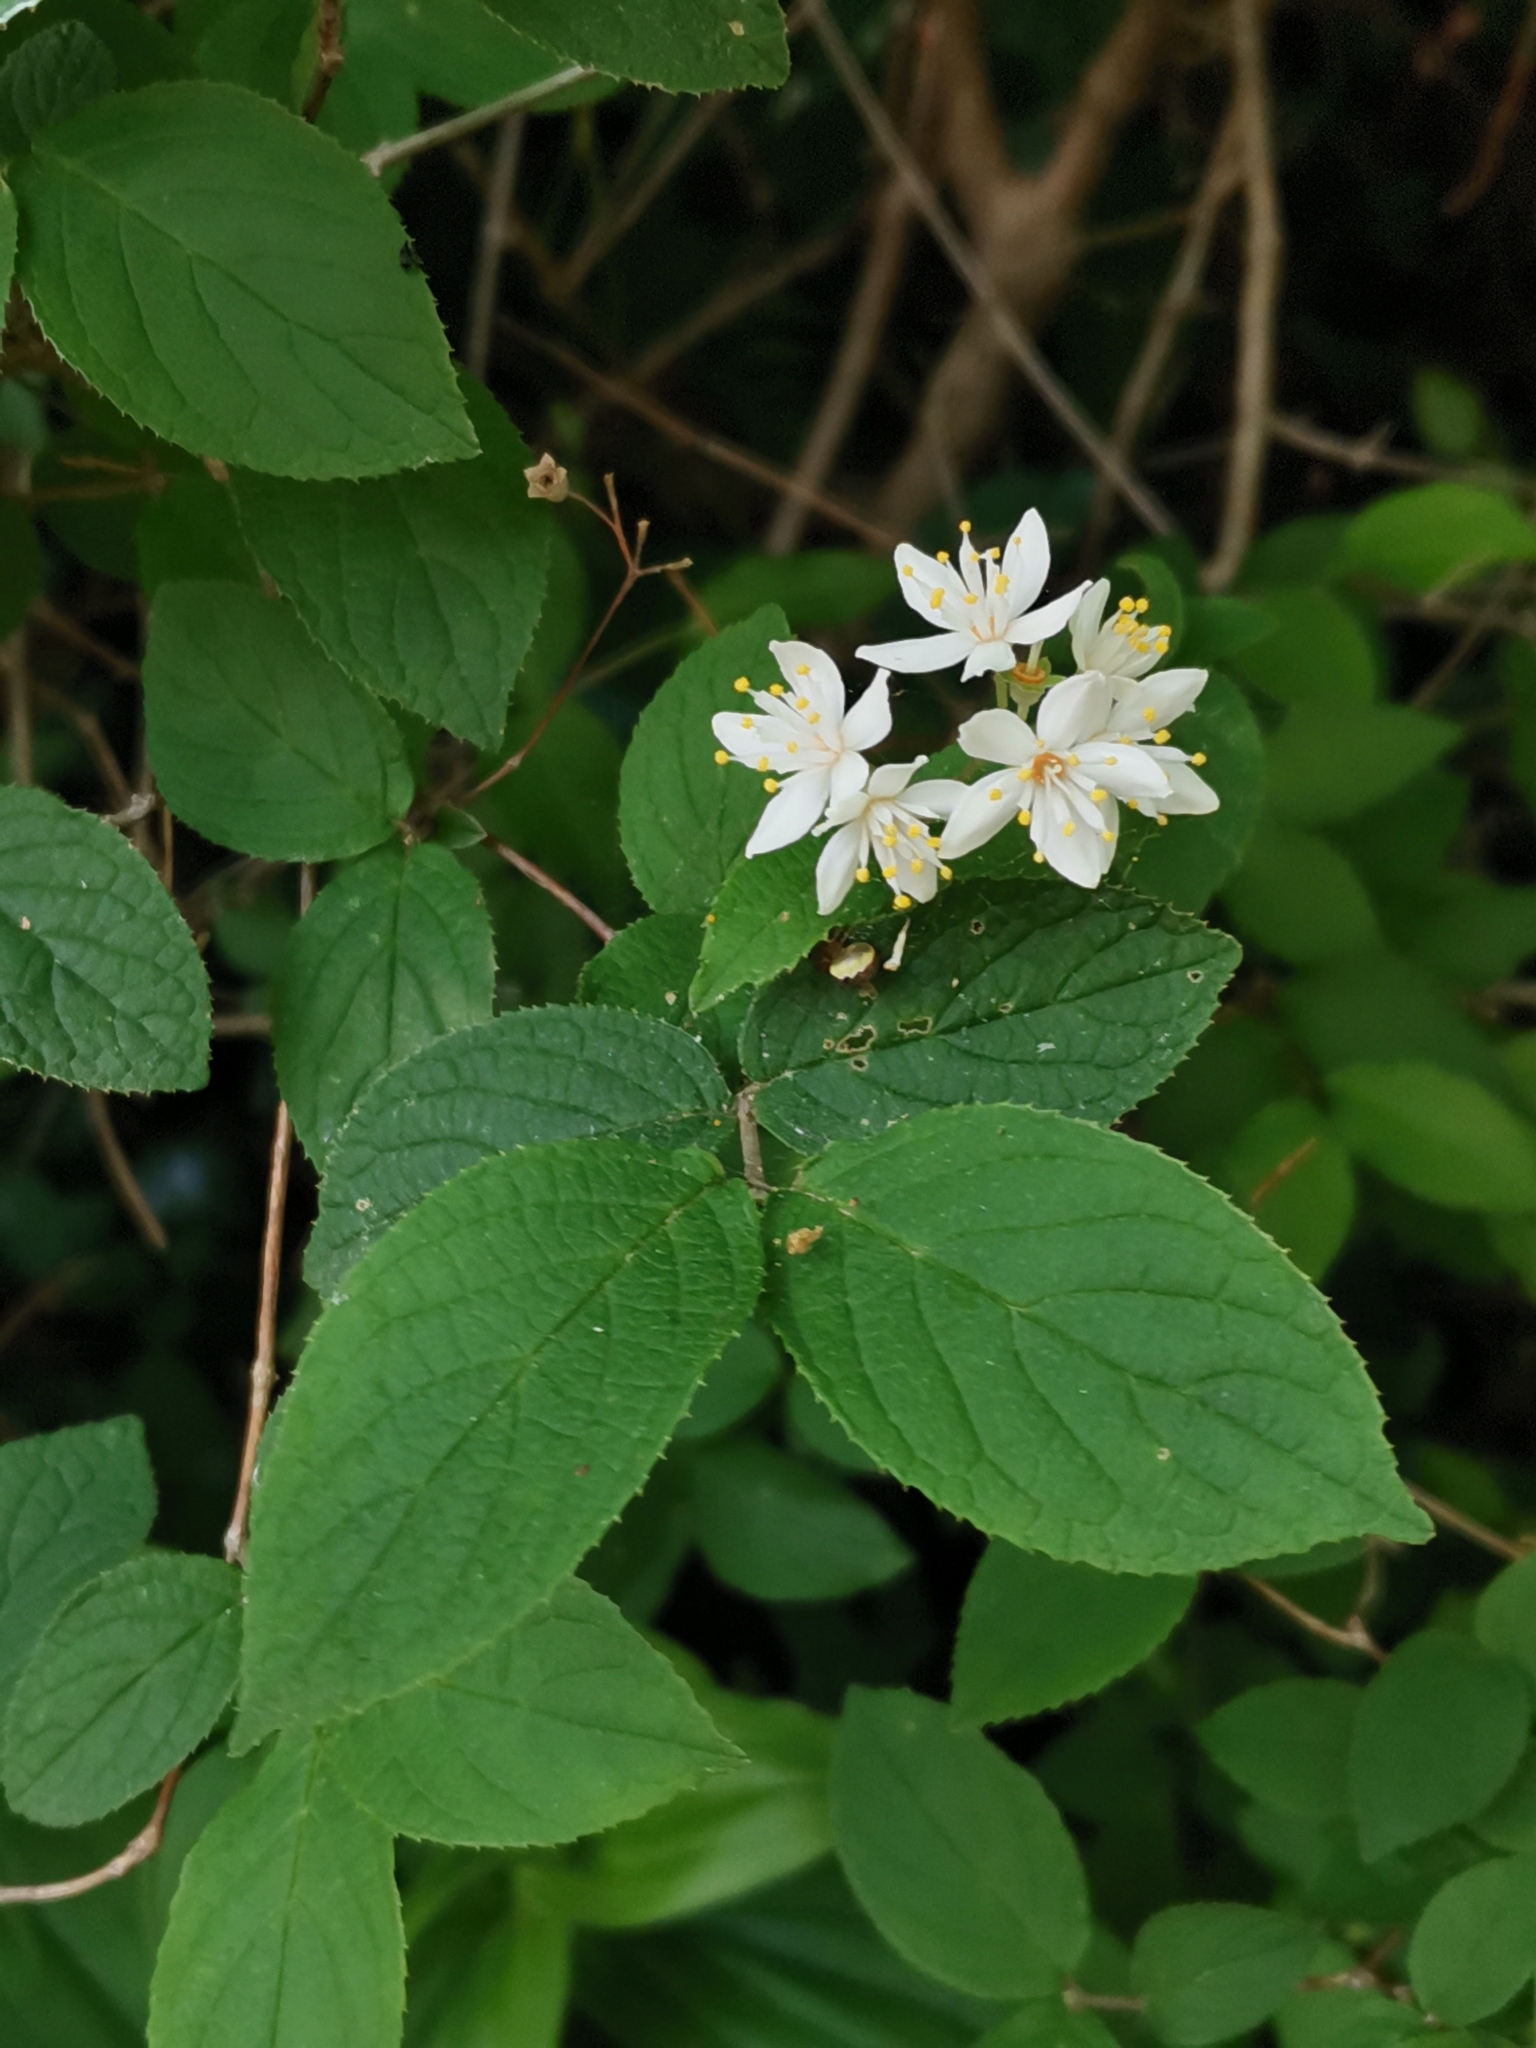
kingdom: Plantae
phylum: Tracheophyta
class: Magnoliopsida
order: Cornales
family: Hydrangeaceae
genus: Deutzia
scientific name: Deutzia scabra
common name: Deutzia
